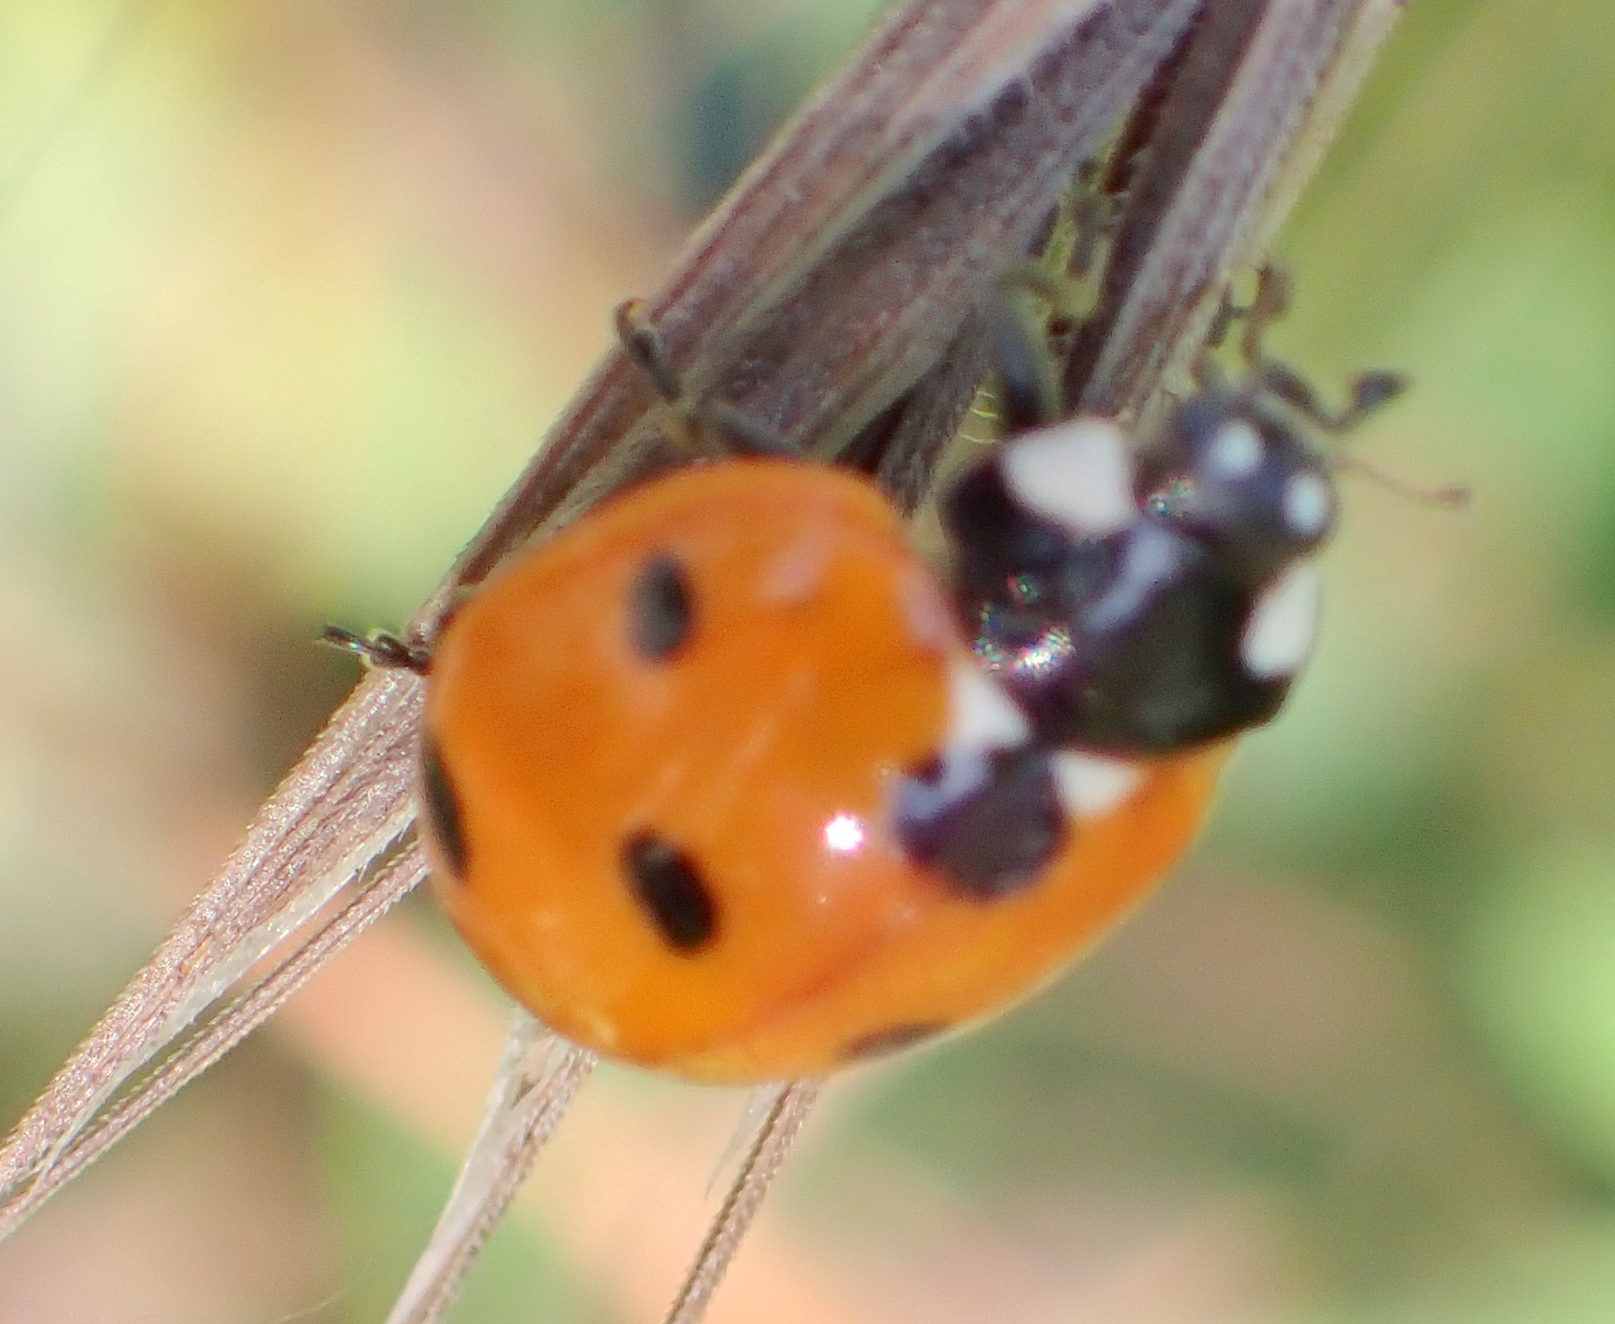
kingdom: Animalia
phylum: Arthropoda
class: Insecta
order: Coleoptera
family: Coccinellidae
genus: Coccinella
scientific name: Coccinella septempunctata
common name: Sevenspotted lady beetle
